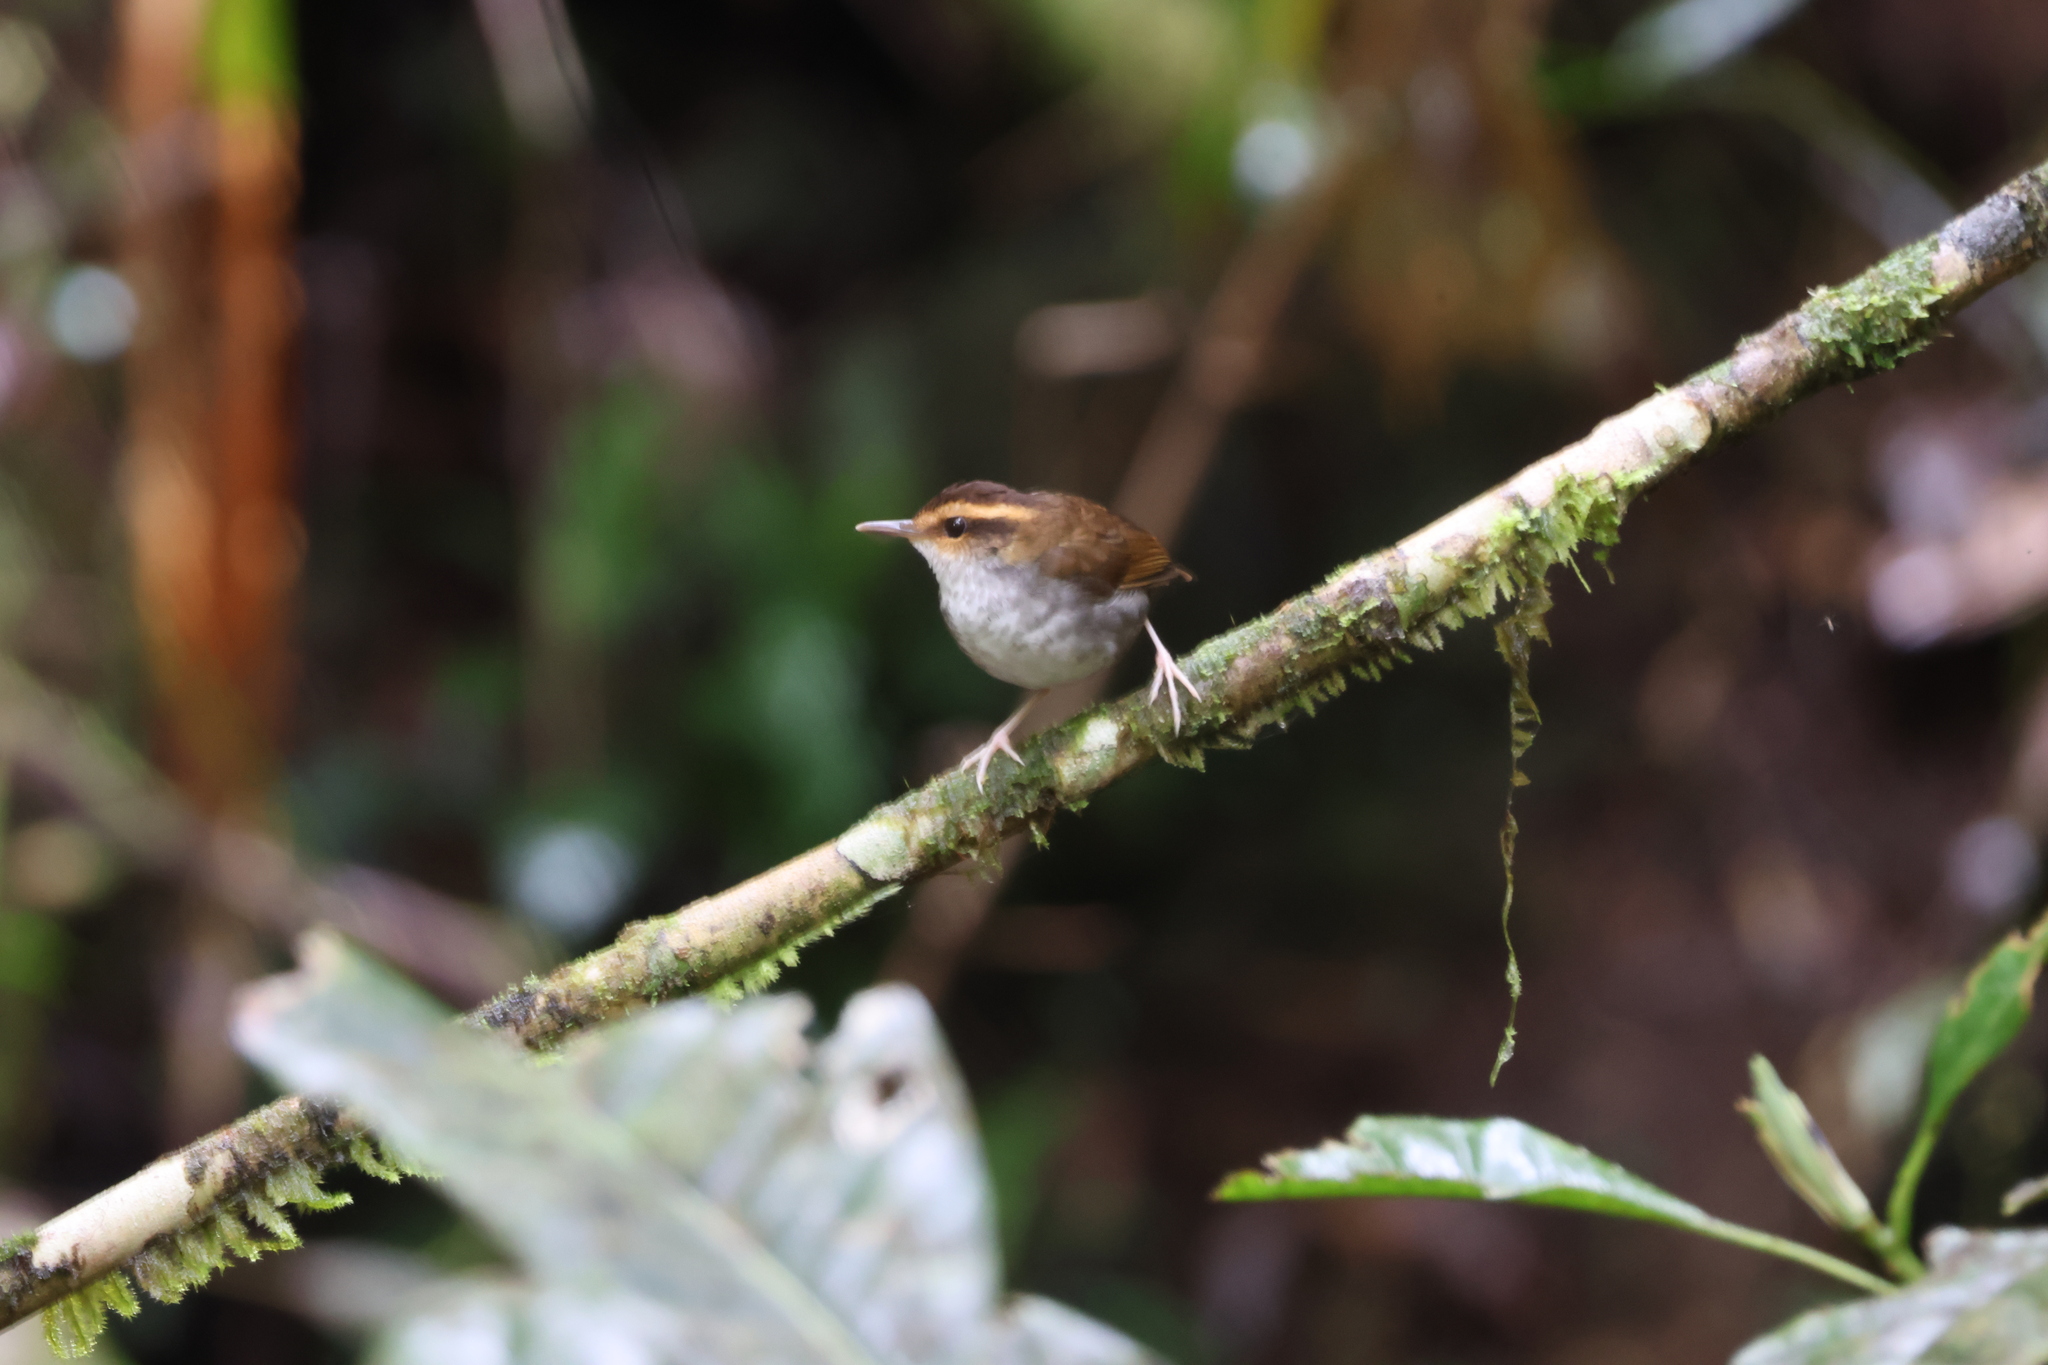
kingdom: Animalia
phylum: Chordata
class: Aves
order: Passeriformes
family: Cettiidae
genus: Urosphena
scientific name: Urosphena whiteheadi
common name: Bornean stubtail
